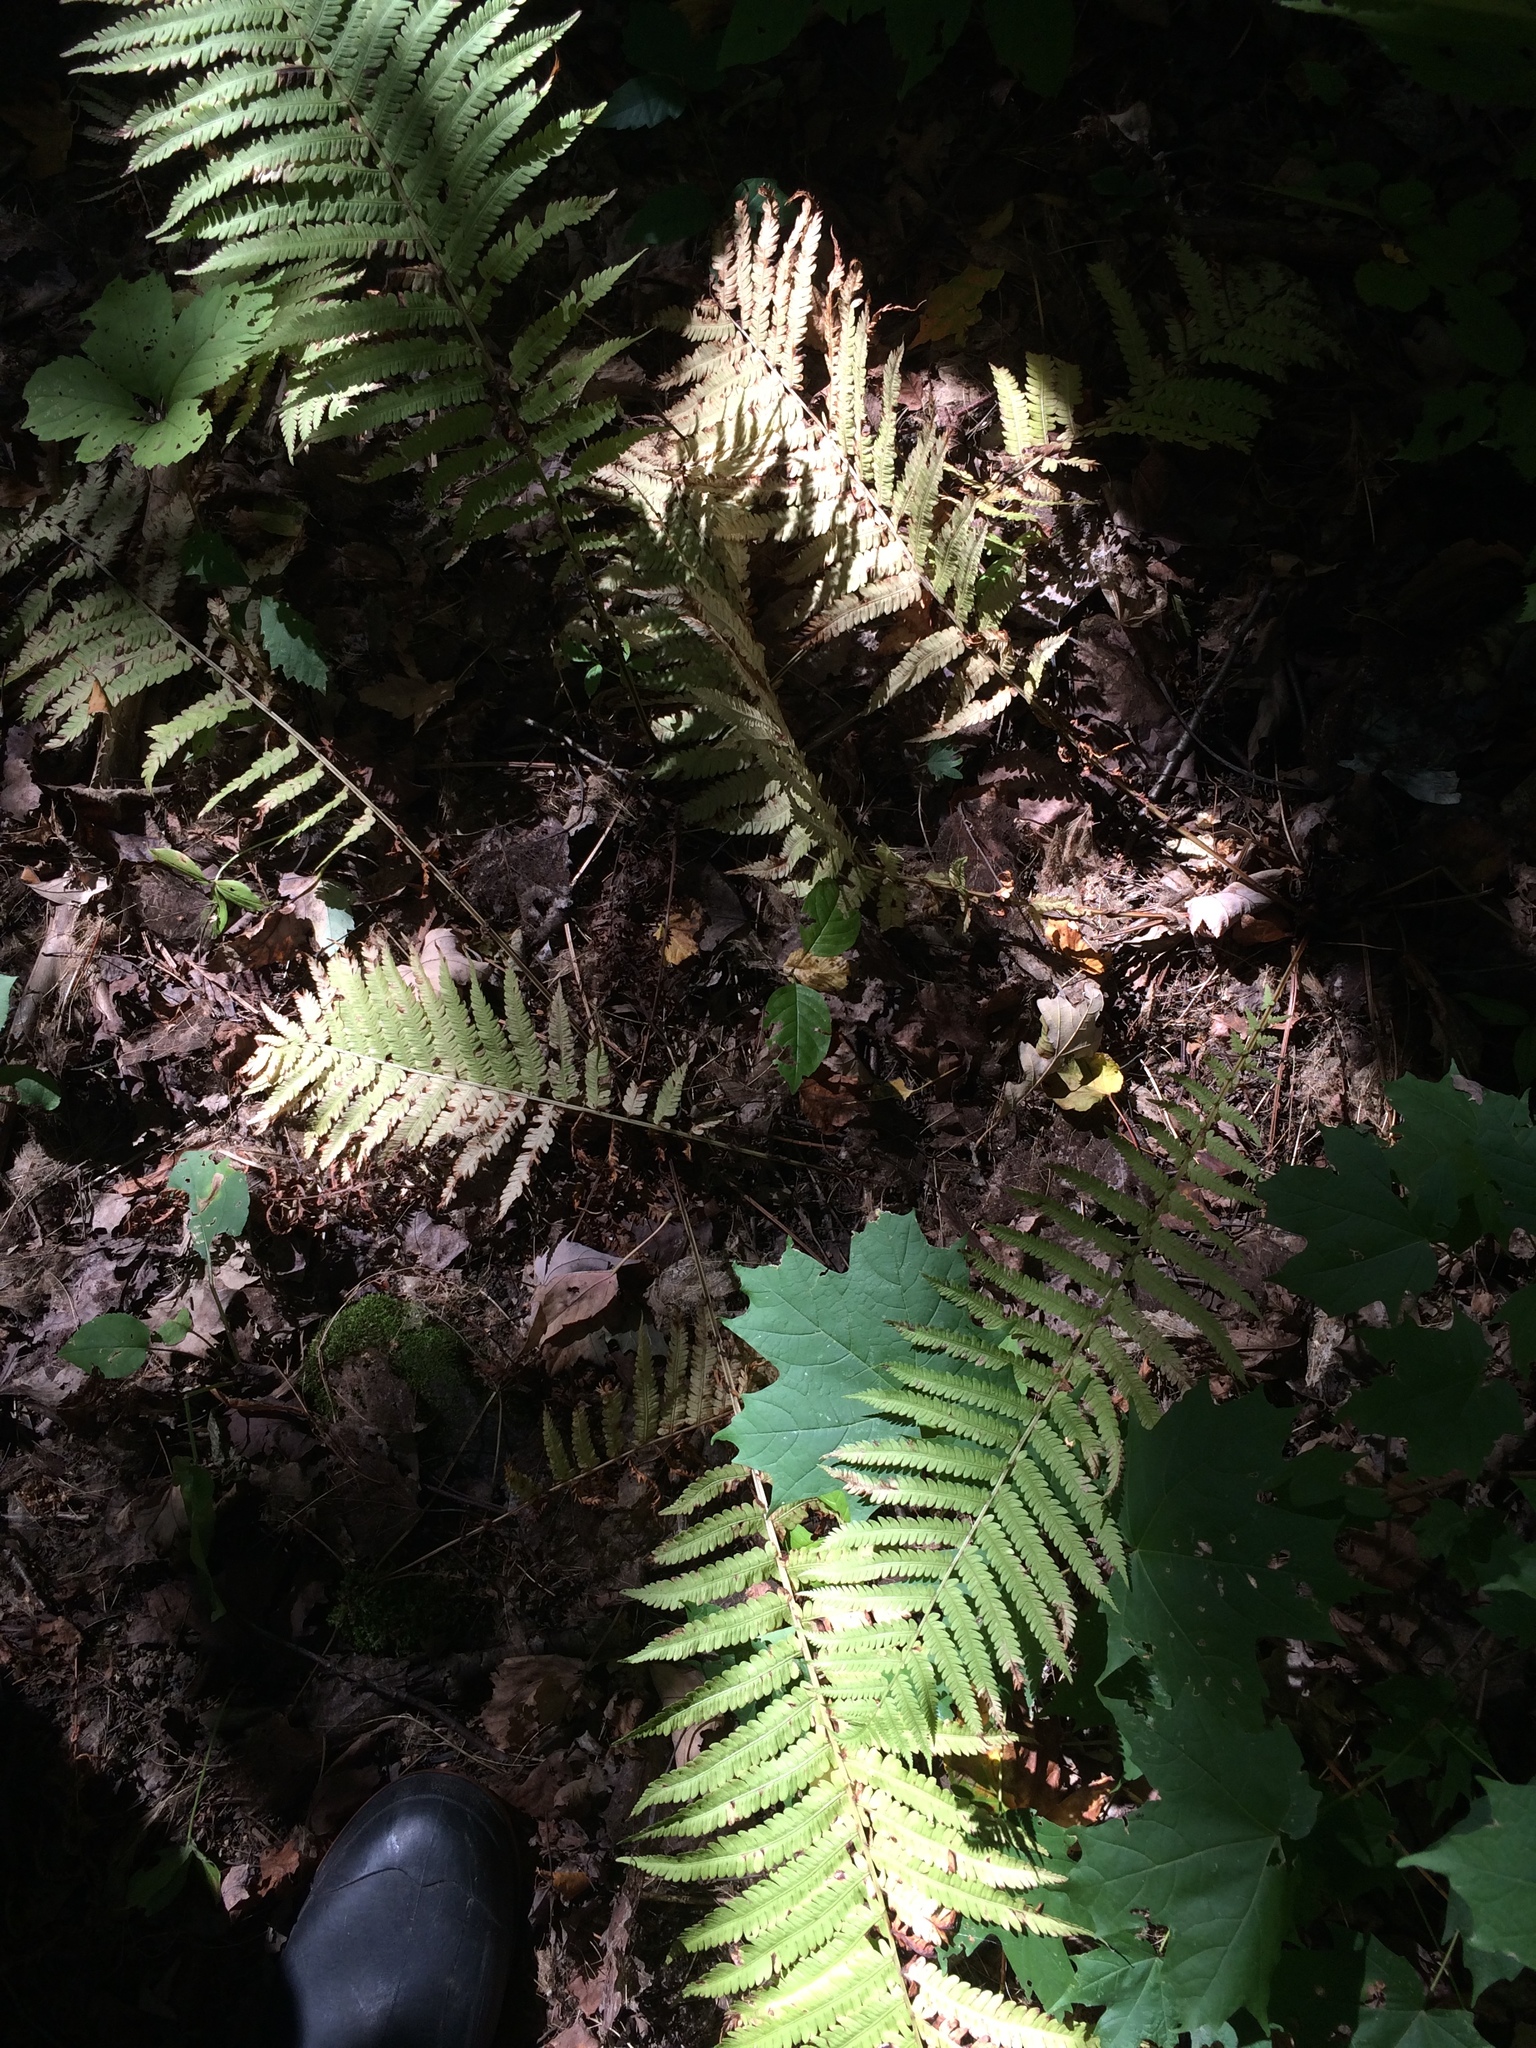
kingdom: Plantae
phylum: Tracheophyta
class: Polypodiopsida
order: Polypodiales
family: Onocleaceae
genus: Matteuccia
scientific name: Matteuccia struthiopteris
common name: Ostrich fern
